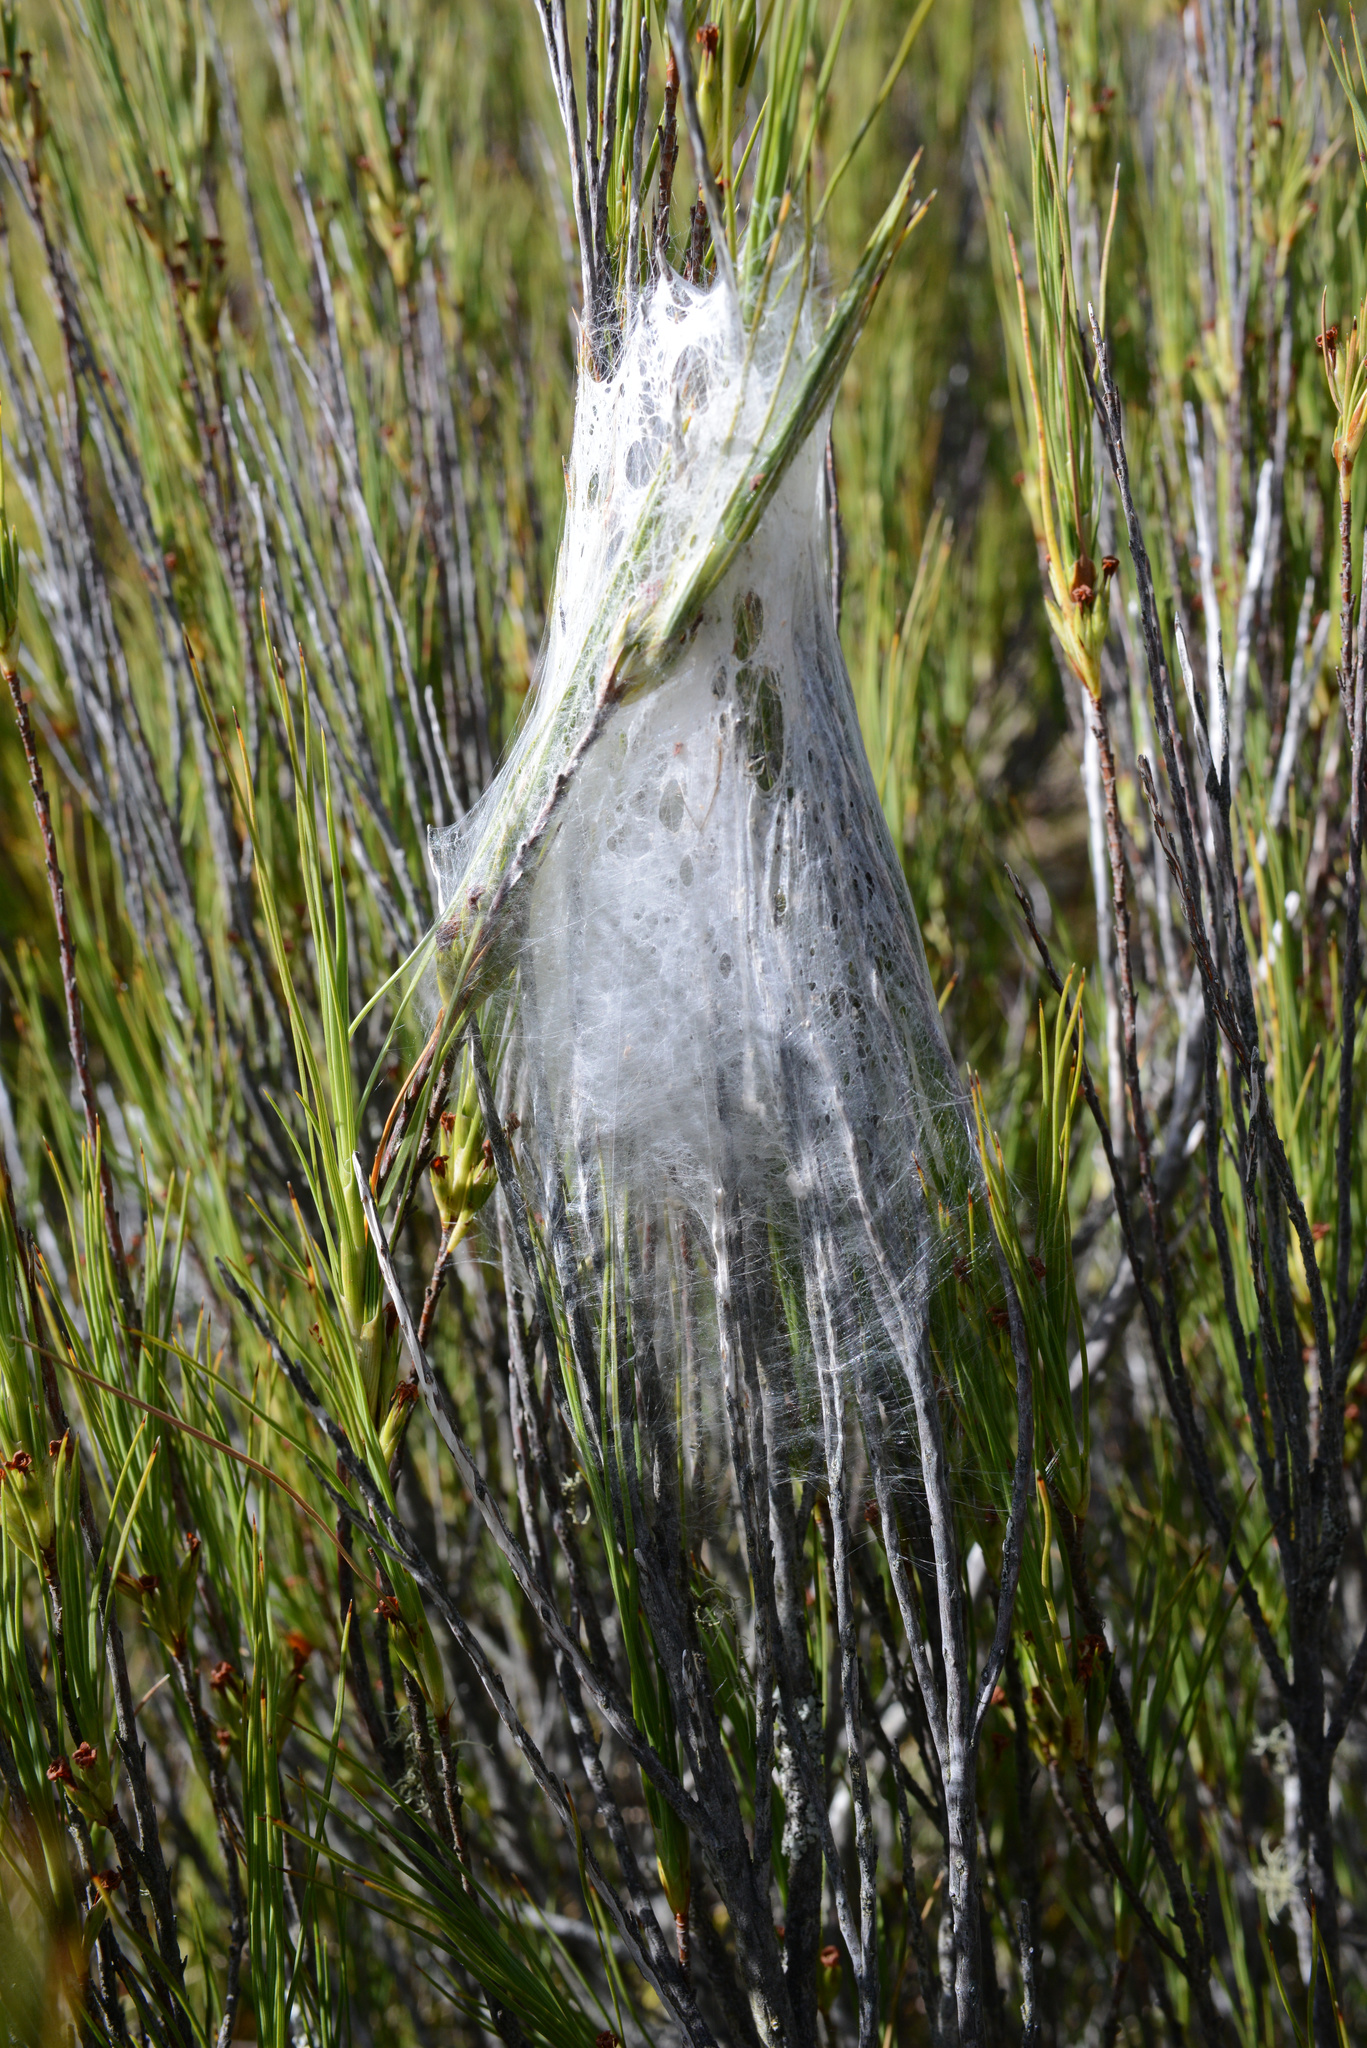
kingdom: Animalia
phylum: Arthropoda
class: Arachnida
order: Araneae
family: Pisauridae
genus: Dolomedes
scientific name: Dolomedes minor
